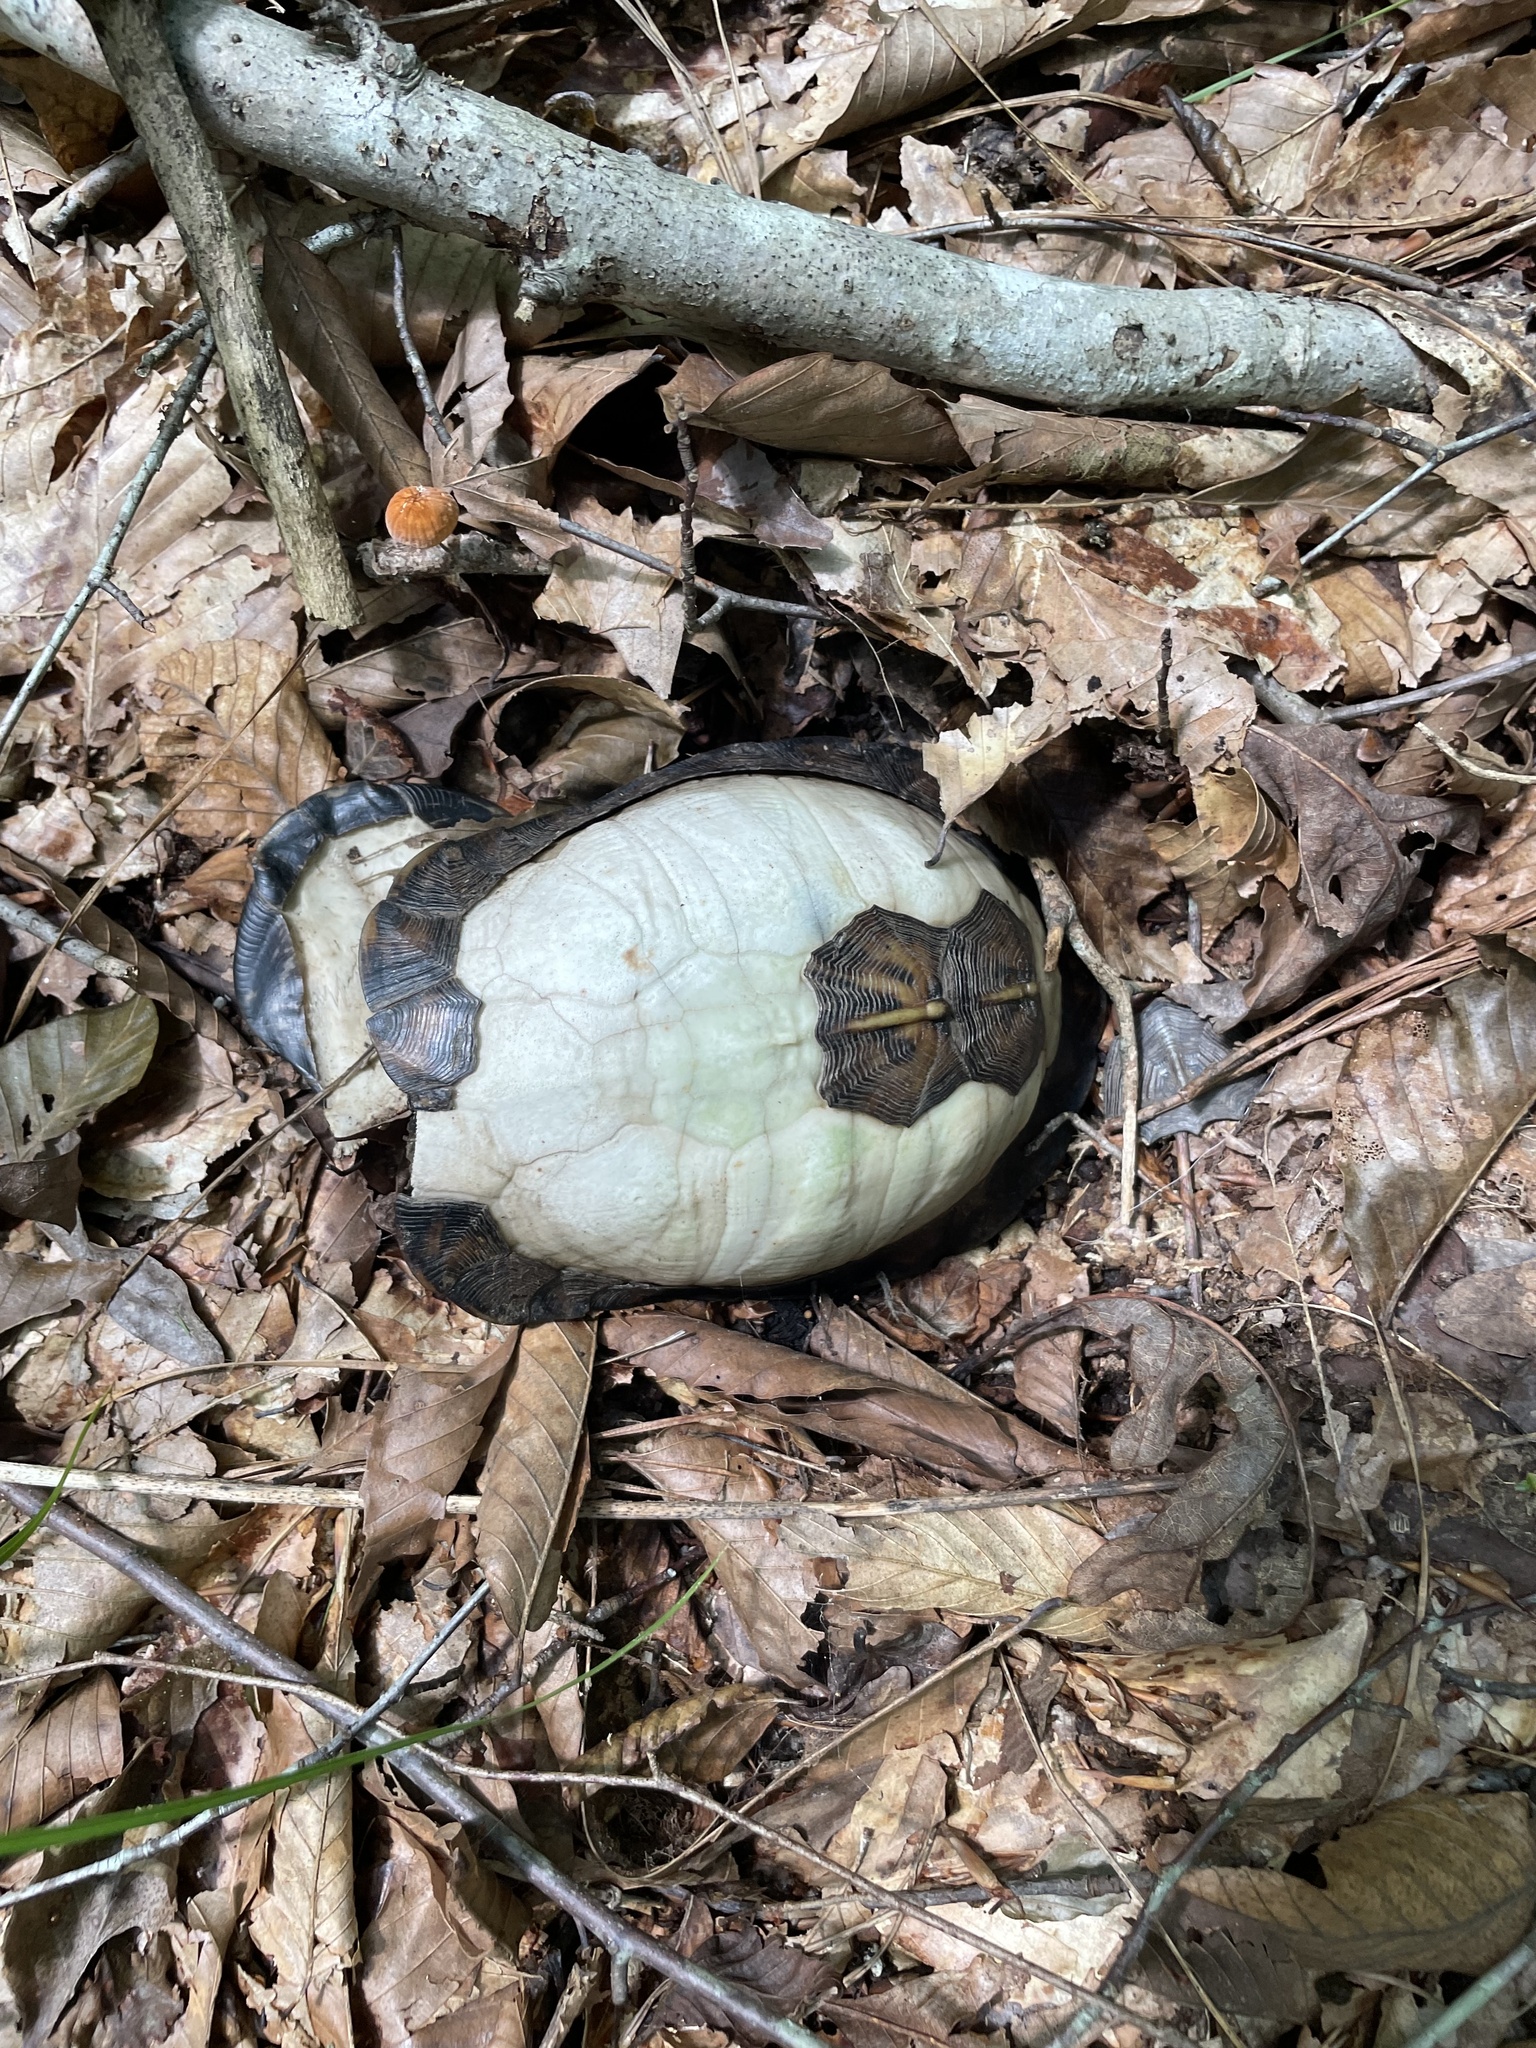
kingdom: Animalia
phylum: Chordata
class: Testudines
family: Emydidae
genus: Terrapene
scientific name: Terrapene carolina
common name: Common box turtle
